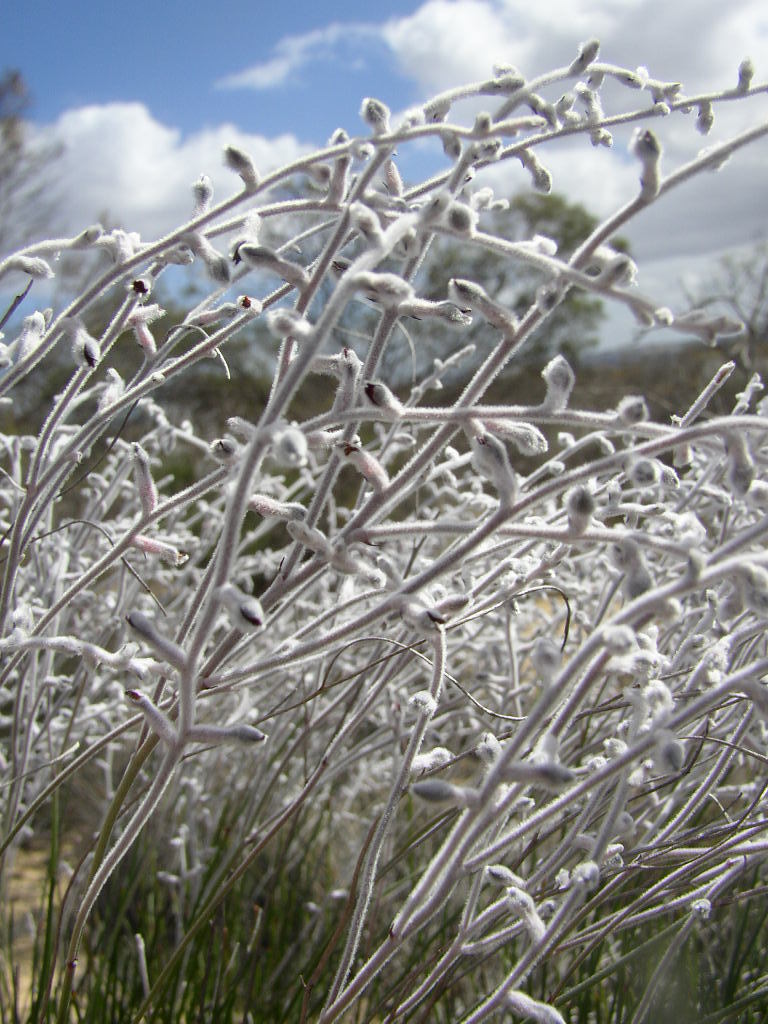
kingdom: Plantae
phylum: Tracheophyta
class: Magnoliopsida
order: Proteales
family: Proteaceae
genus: Conospermum
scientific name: Conospermum incurvum
